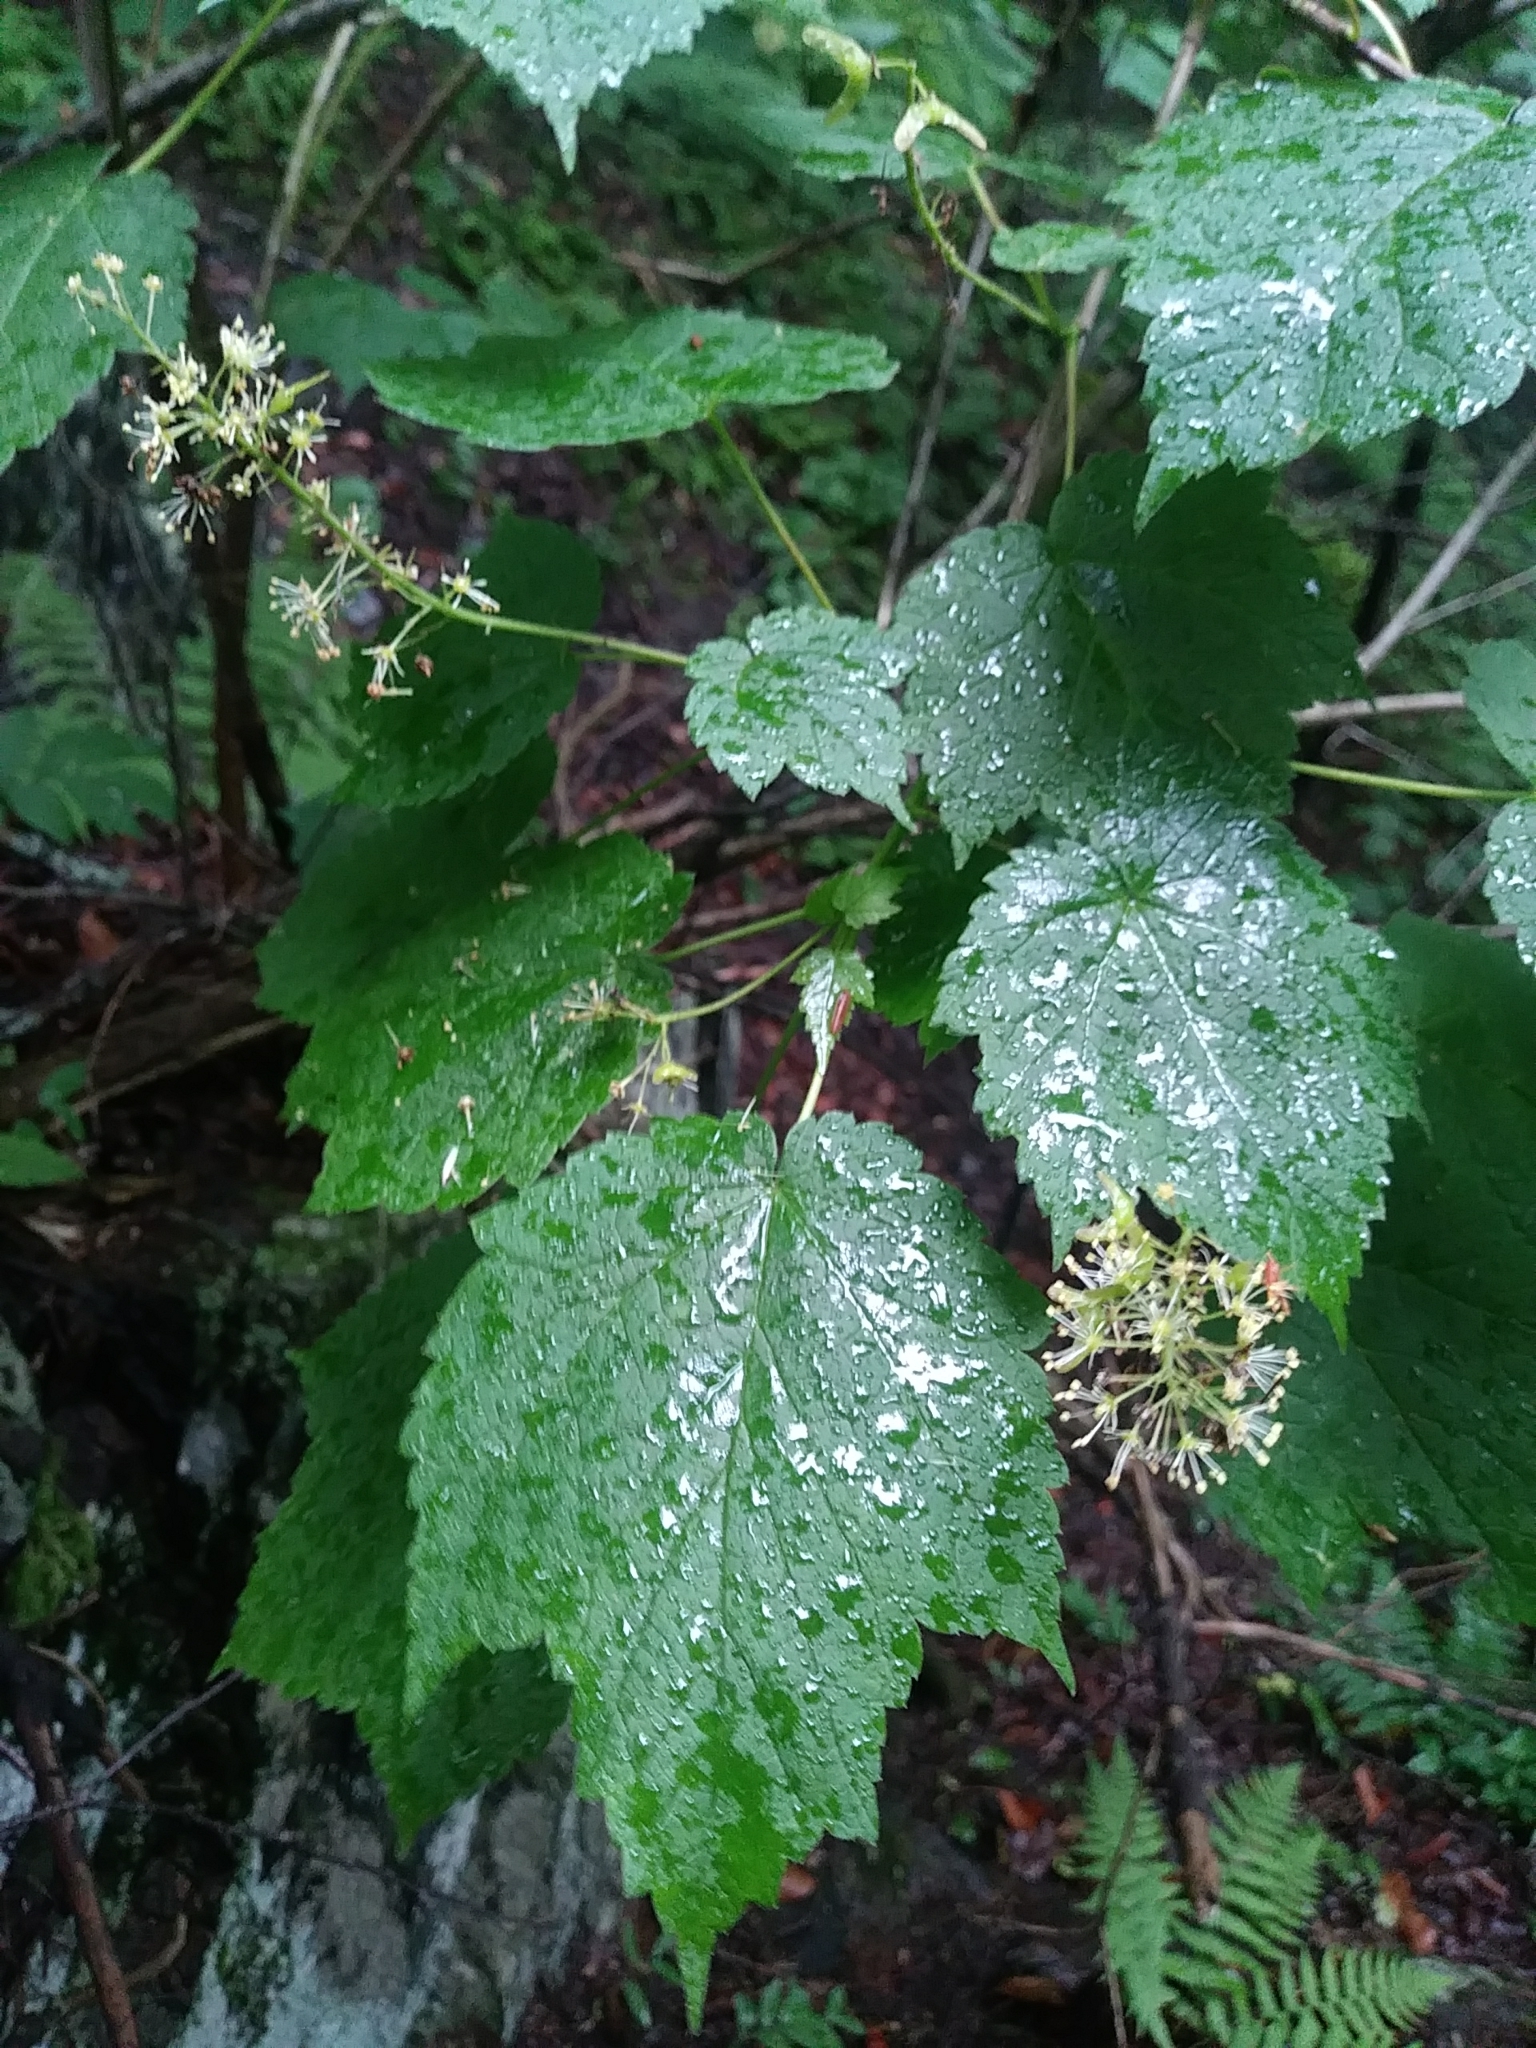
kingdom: Plantae
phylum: Tracheophyta
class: Magnoliopsida
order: Sapindales
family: Sapindaceae
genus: Acer
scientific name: Acer spicatum
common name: Mountain maple
